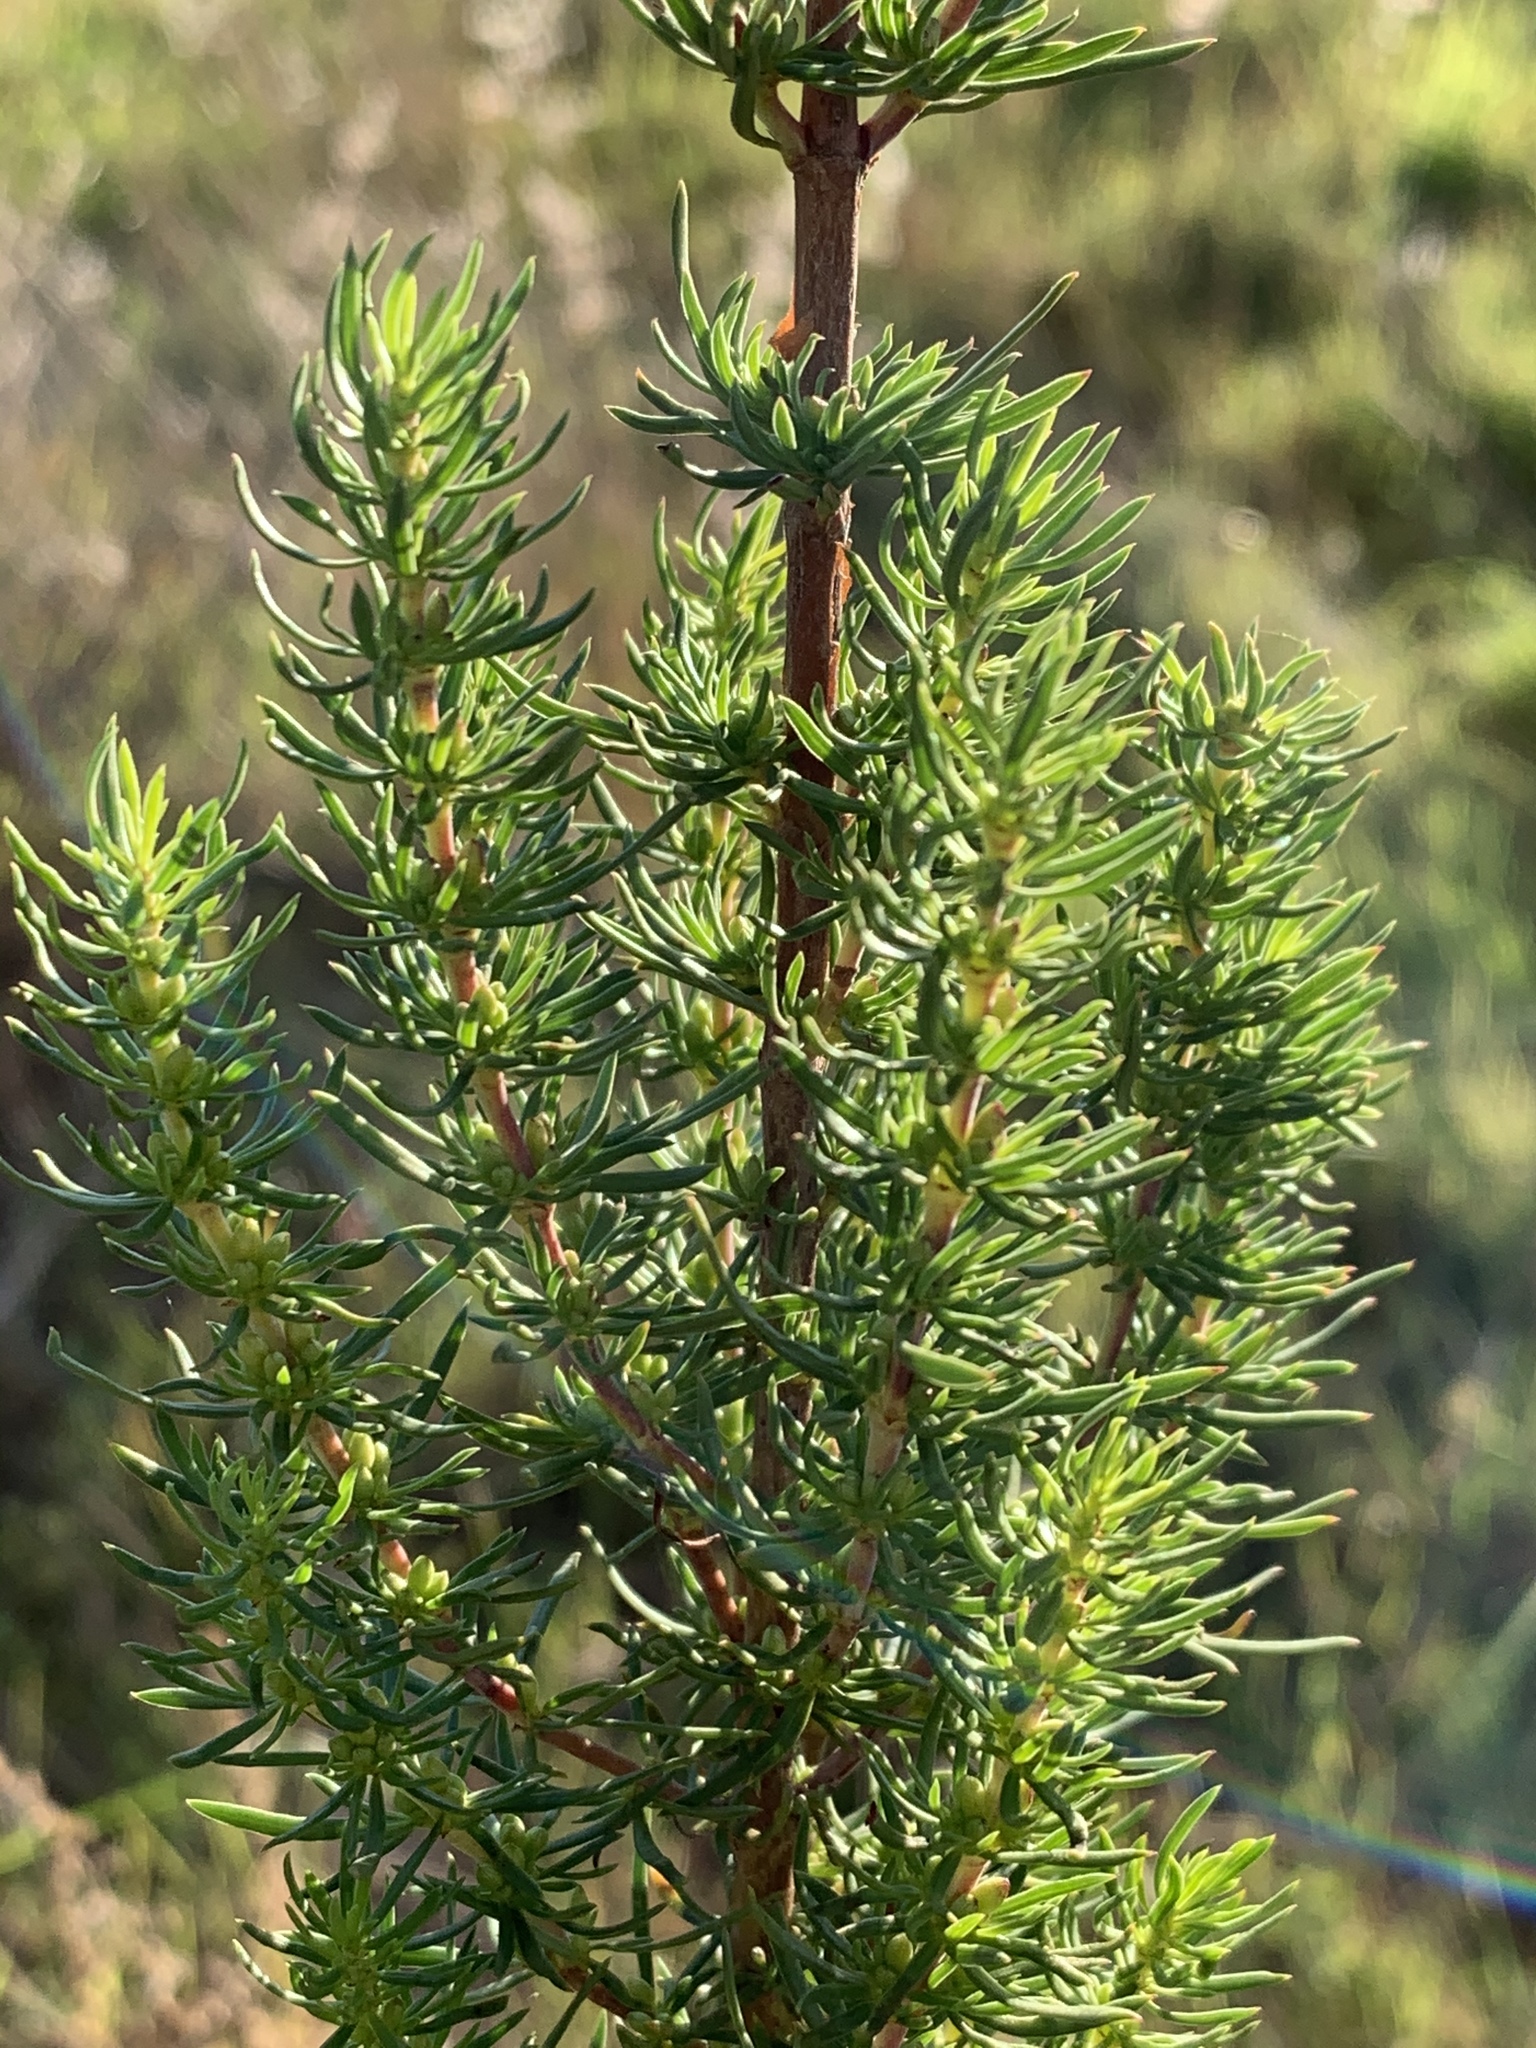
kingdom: Plantae
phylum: Tracheophyta
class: Magnoliopsida
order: Gentianales
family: Rubiaceae
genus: Anthospermum
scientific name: Anthospermum aethiopicum
